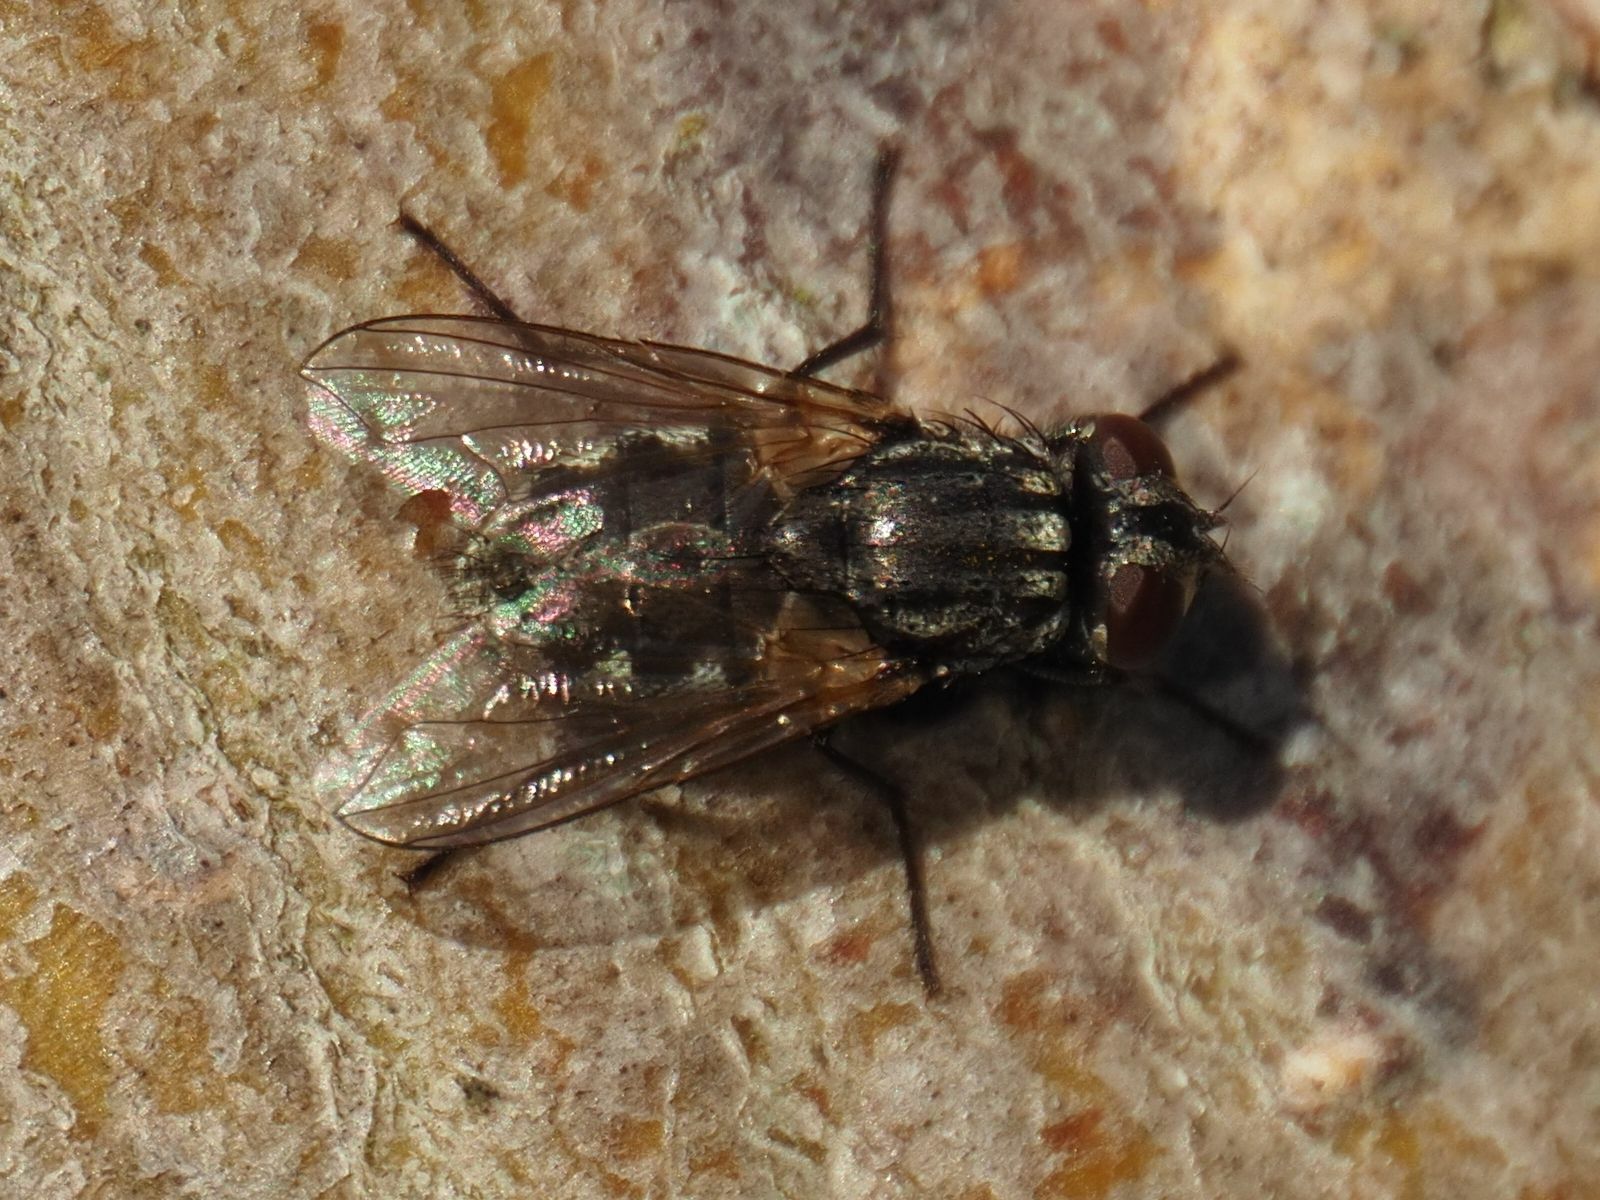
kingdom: Animalia
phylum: Arthropoda
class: Insecta
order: Diptera
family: Muscidae
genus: Musca
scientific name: Musca autumnalis
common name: Face fly
